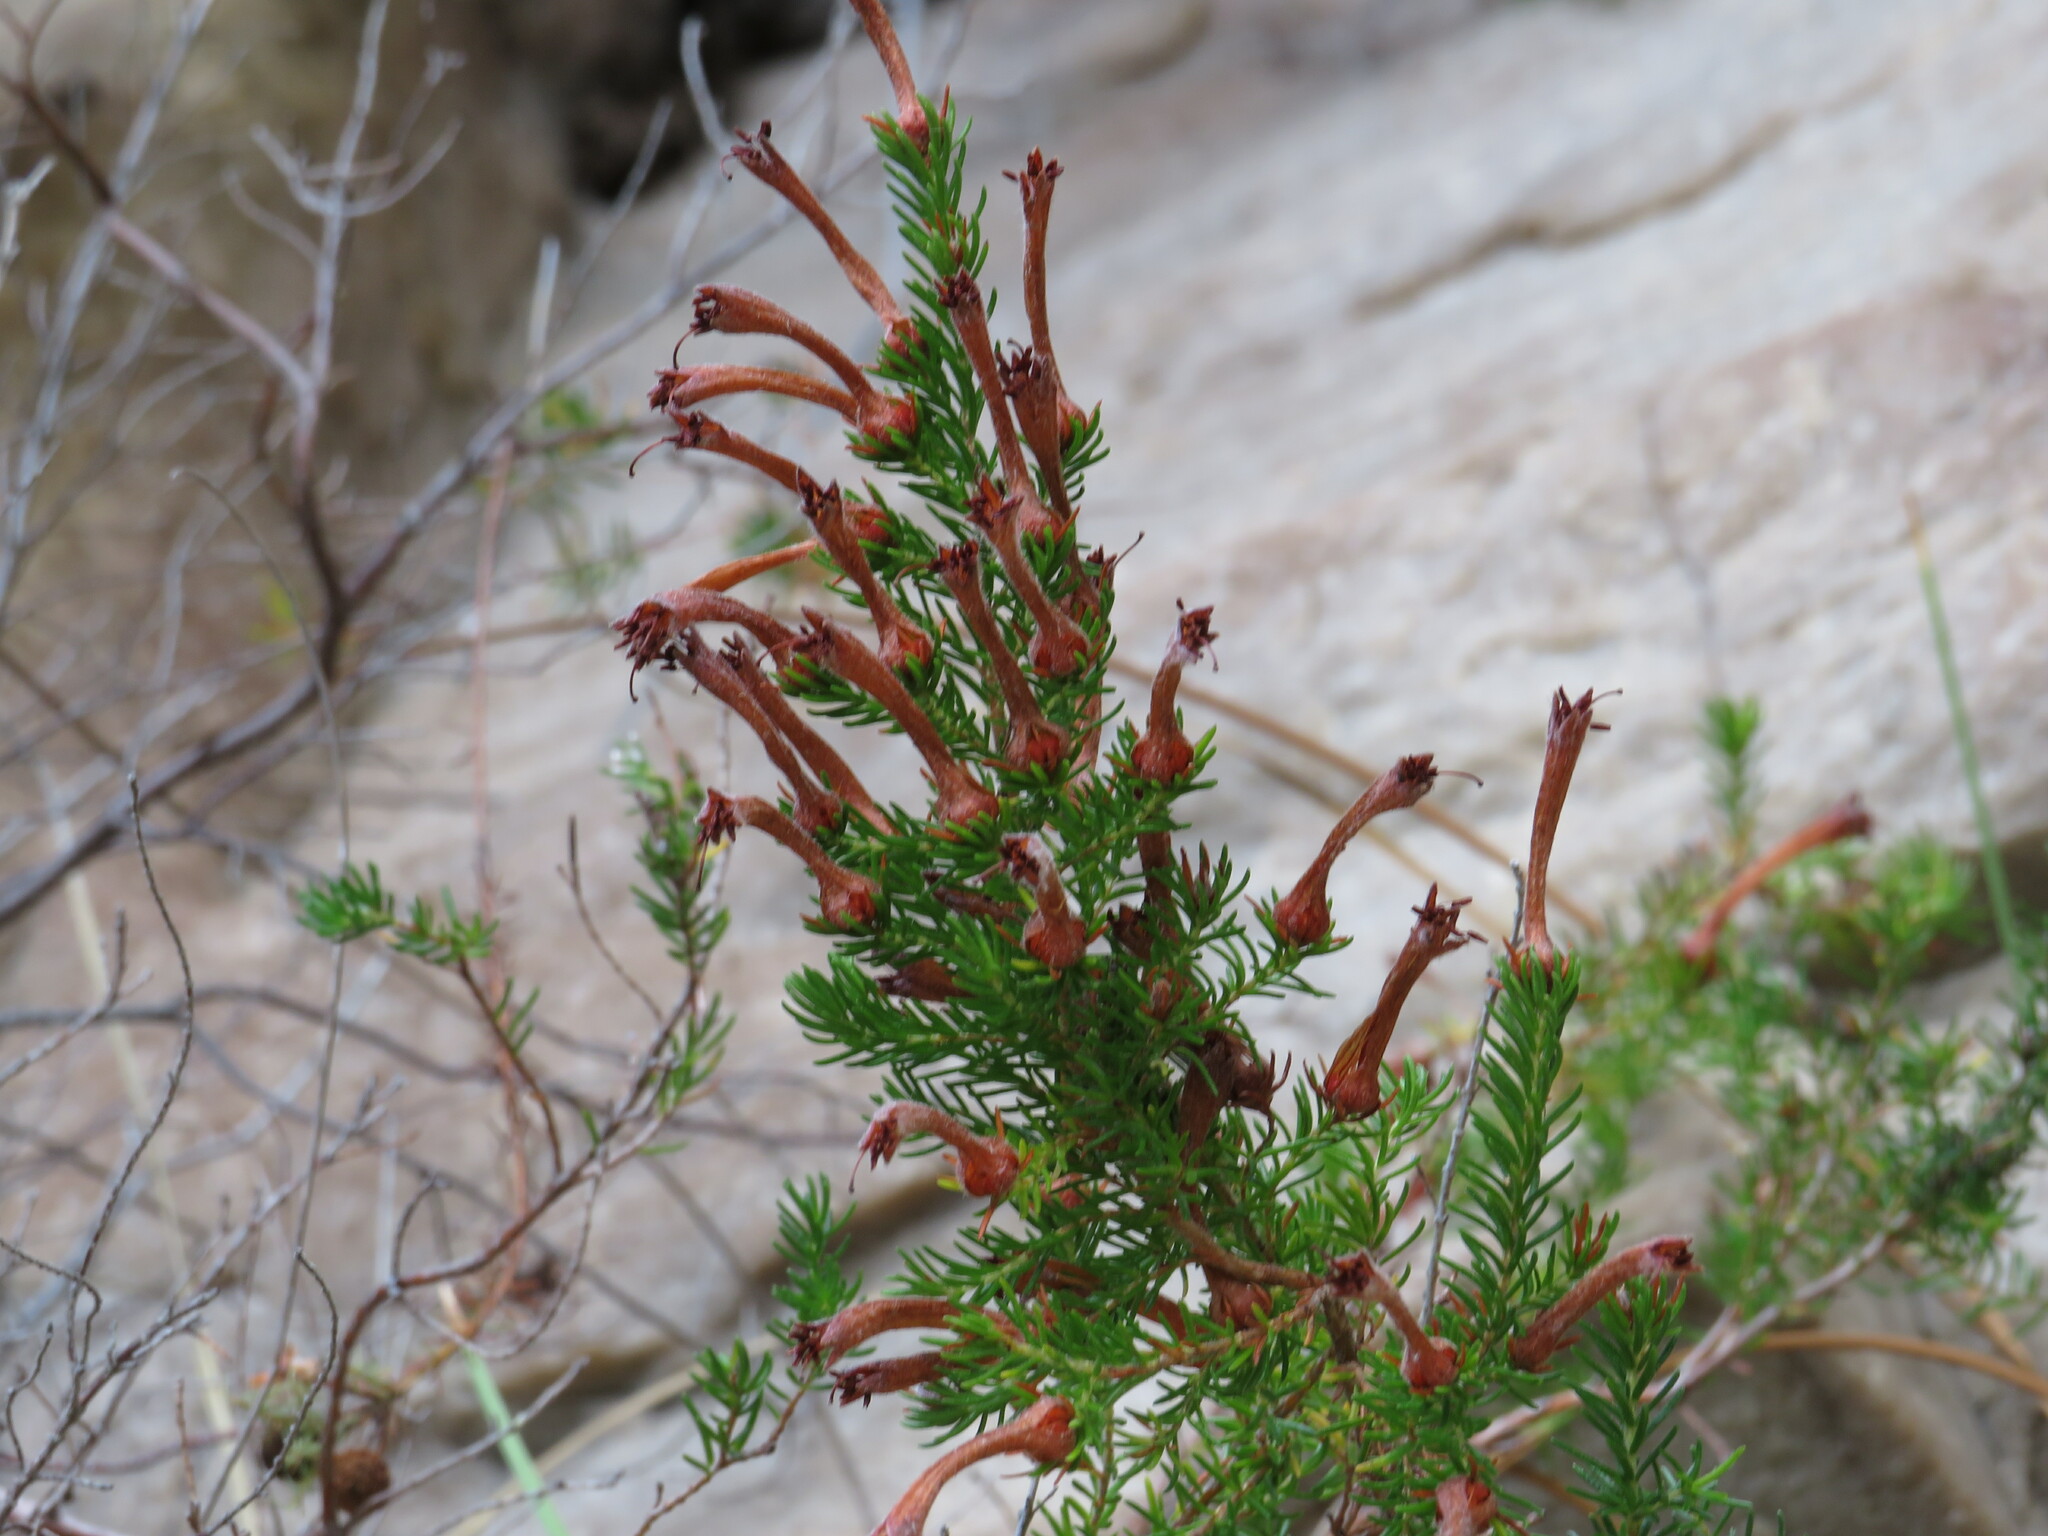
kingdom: Plantae
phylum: Tracheophyta
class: Magnoliopsida
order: Ericales
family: Ericaceae
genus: Erica
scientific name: Erica curviflora
